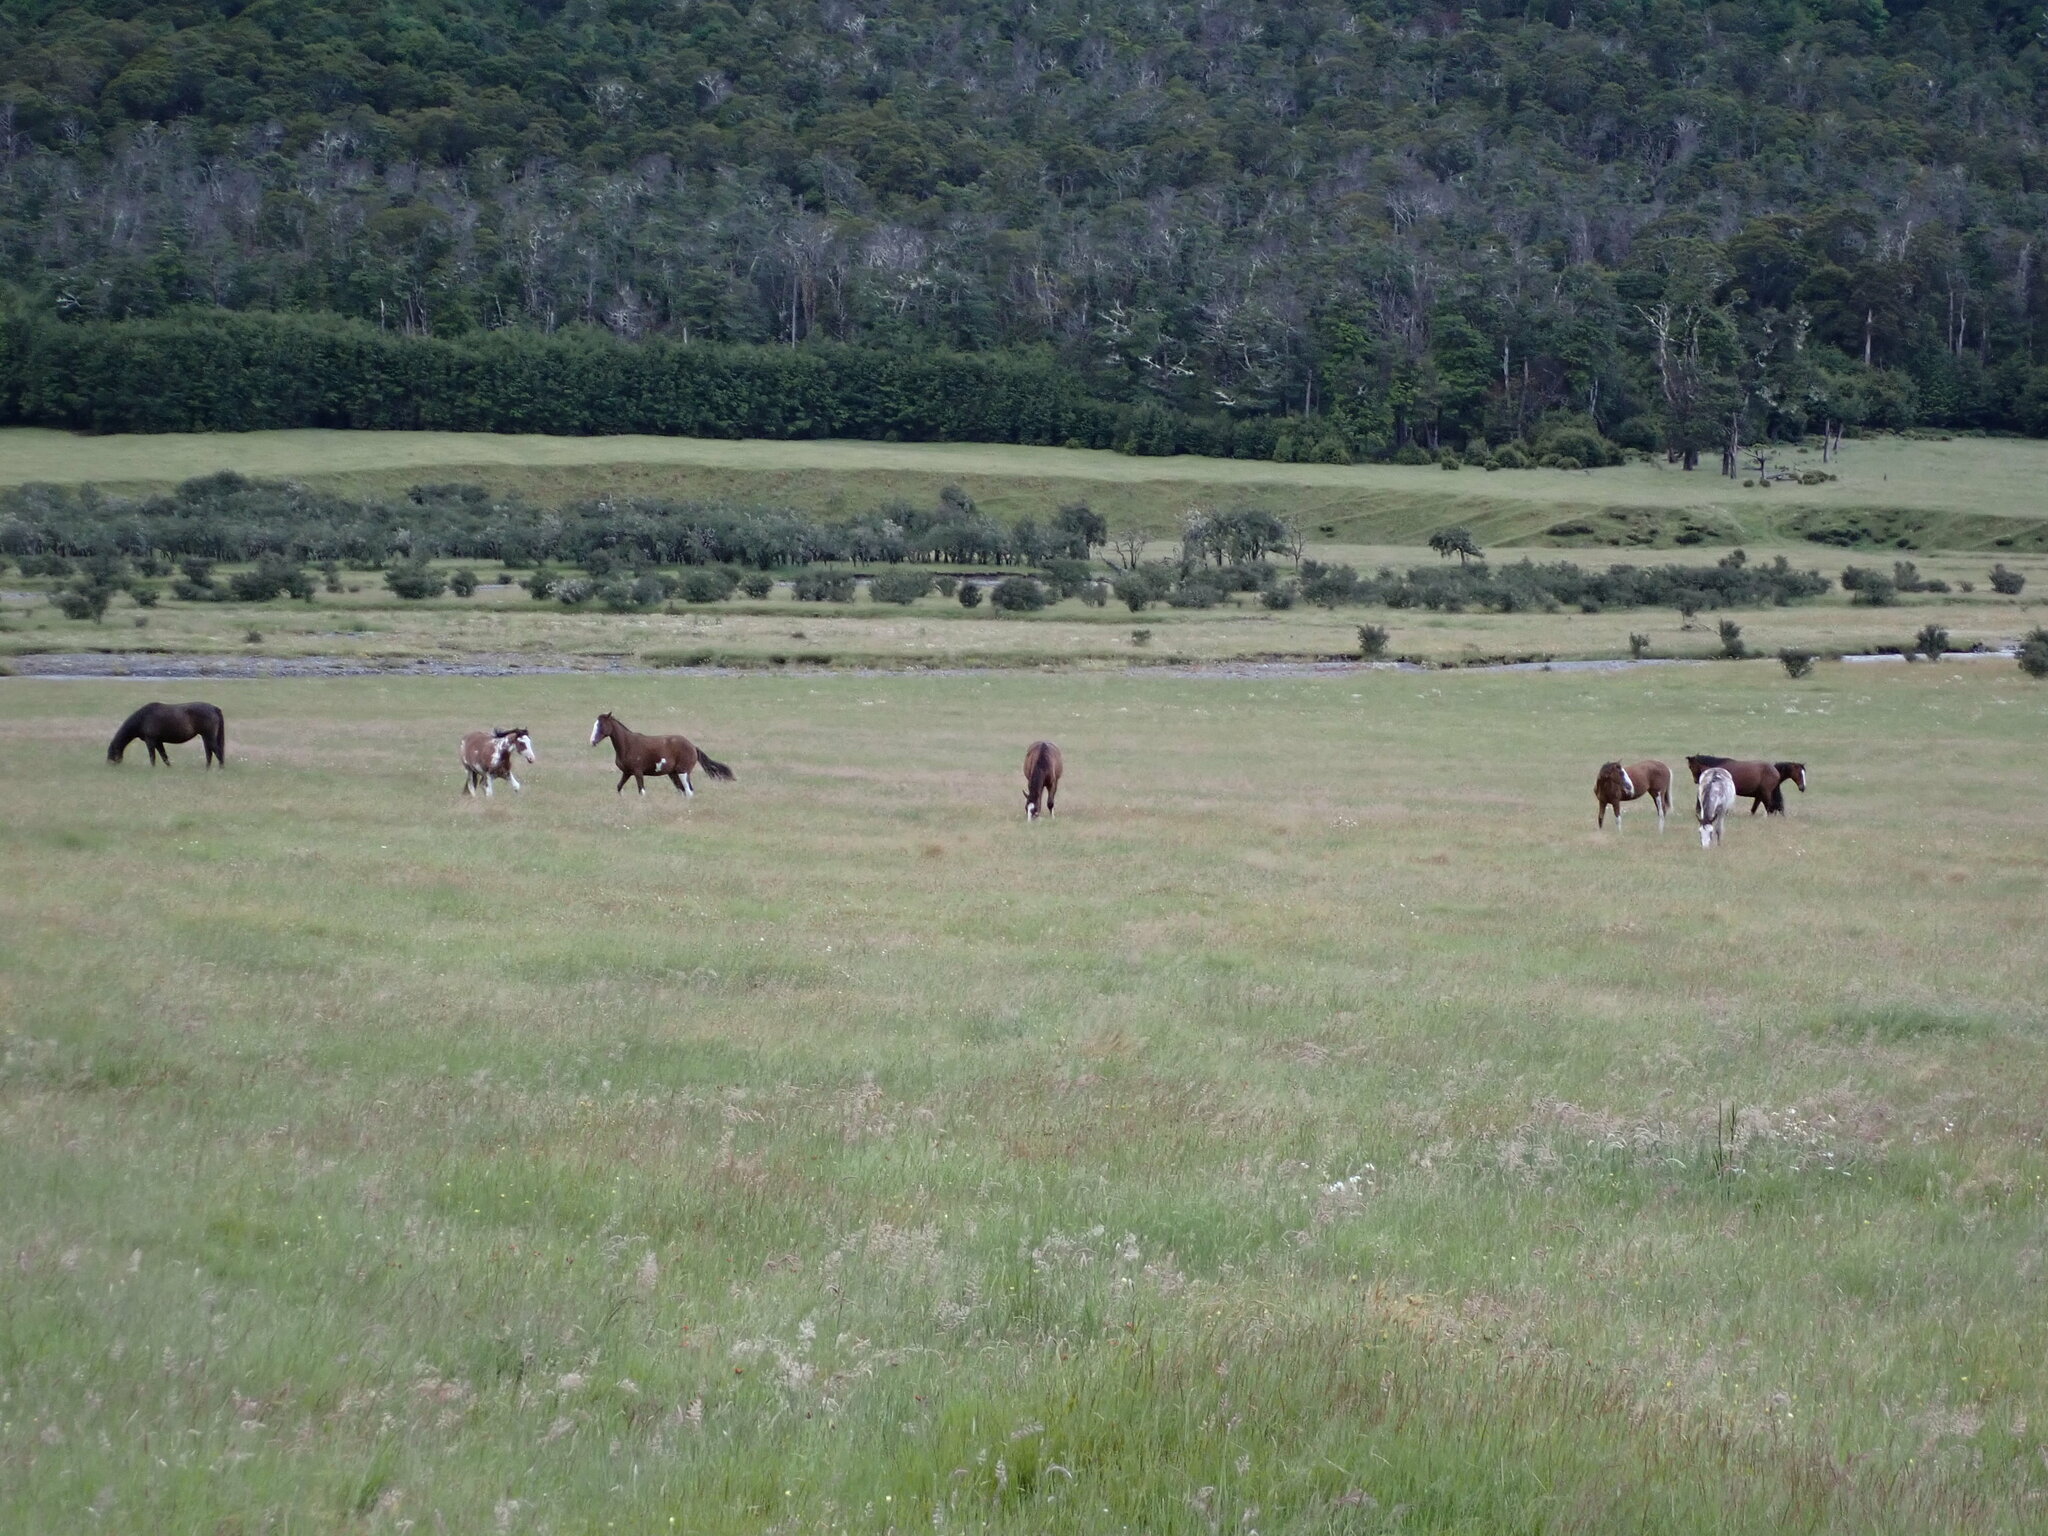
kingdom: Animalia
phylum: Chordata
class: Mammalia
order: Perissodactyla
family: Equidae
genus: Equus
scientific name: Equus caballus
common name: Horse
